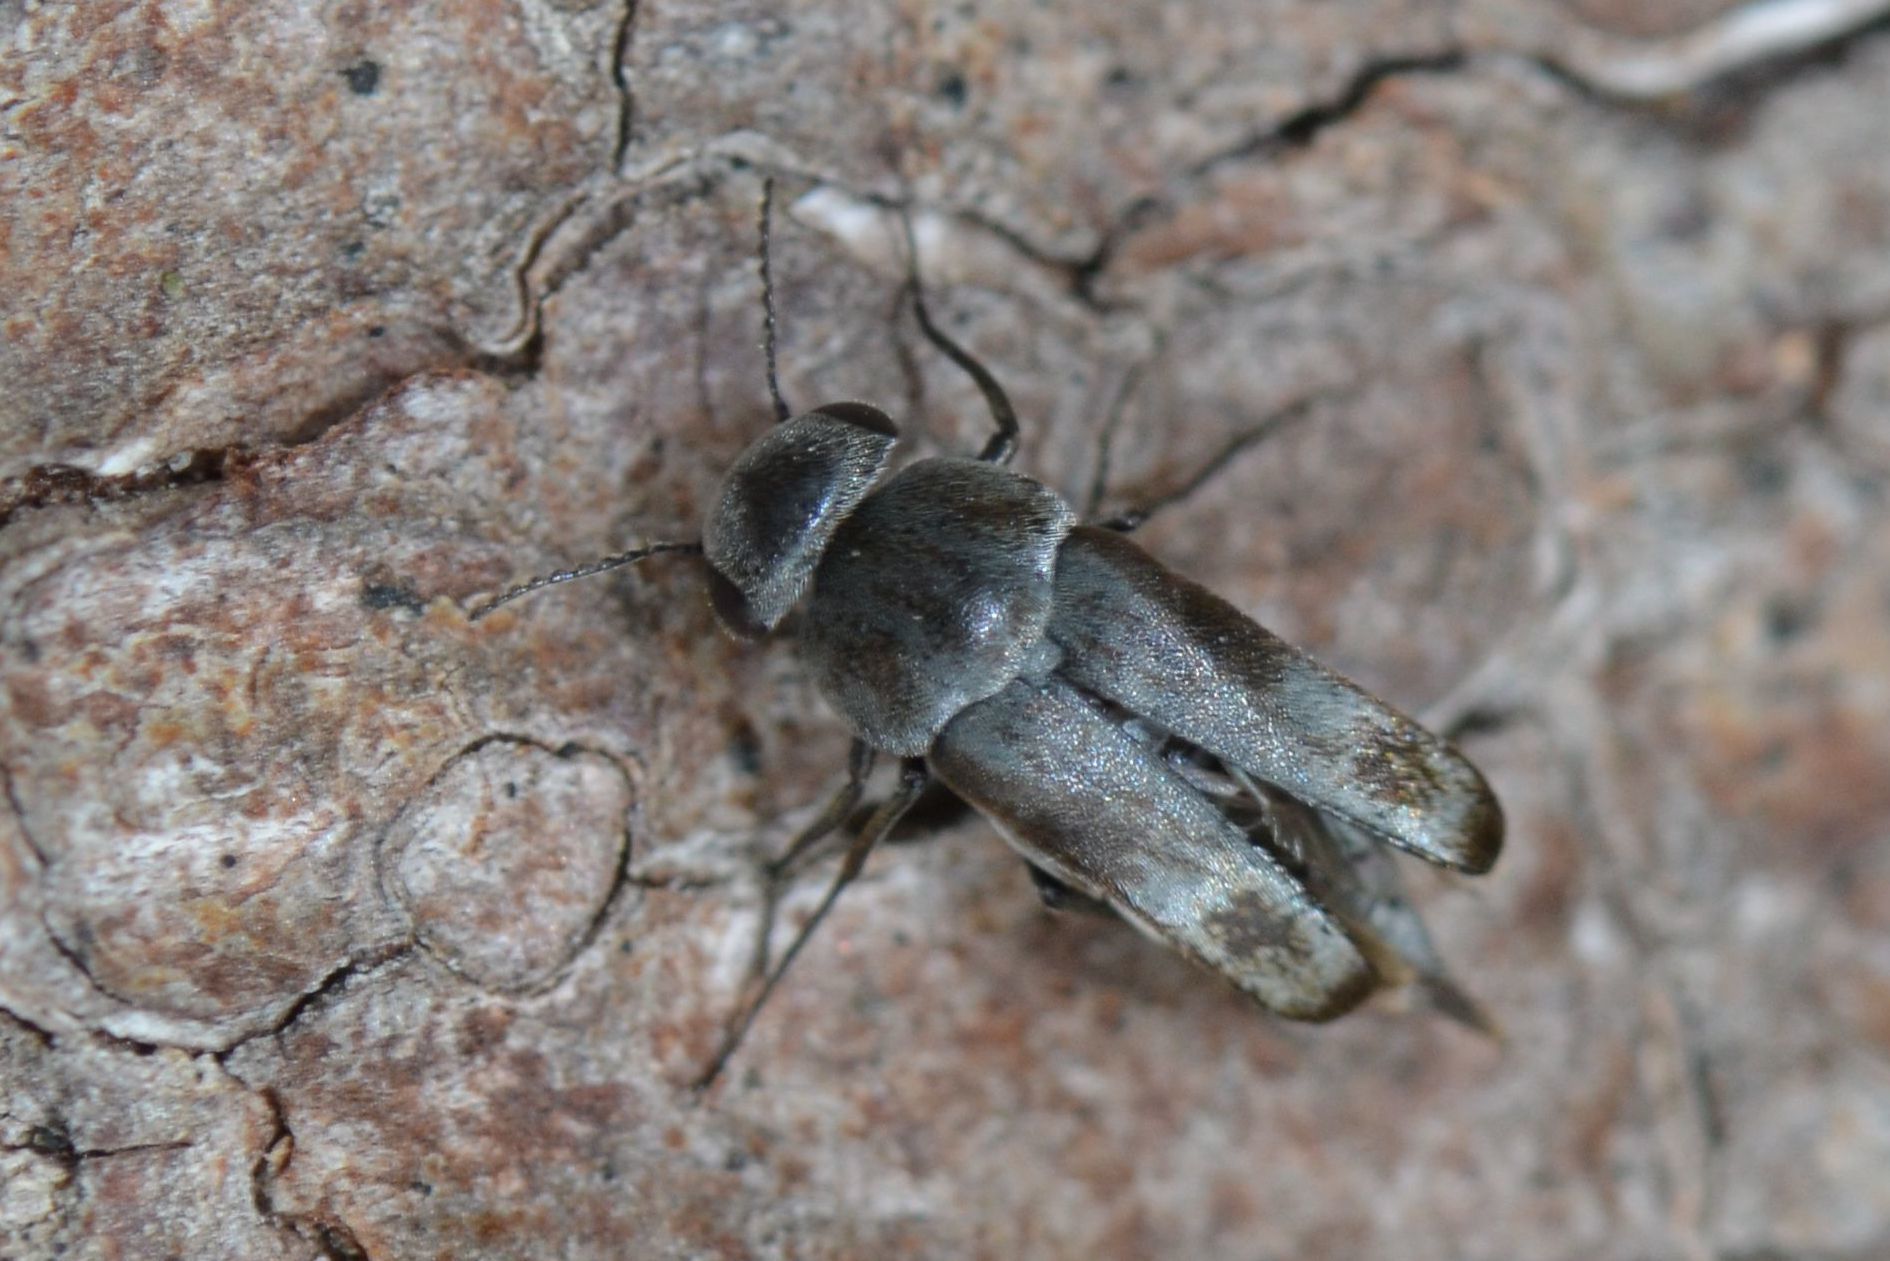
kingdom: Animalia
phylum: Arthropoda
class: Insecta
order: Coleoptera
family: Mordellidae
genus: Tomoxia
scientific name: Tomoxia bucephala
